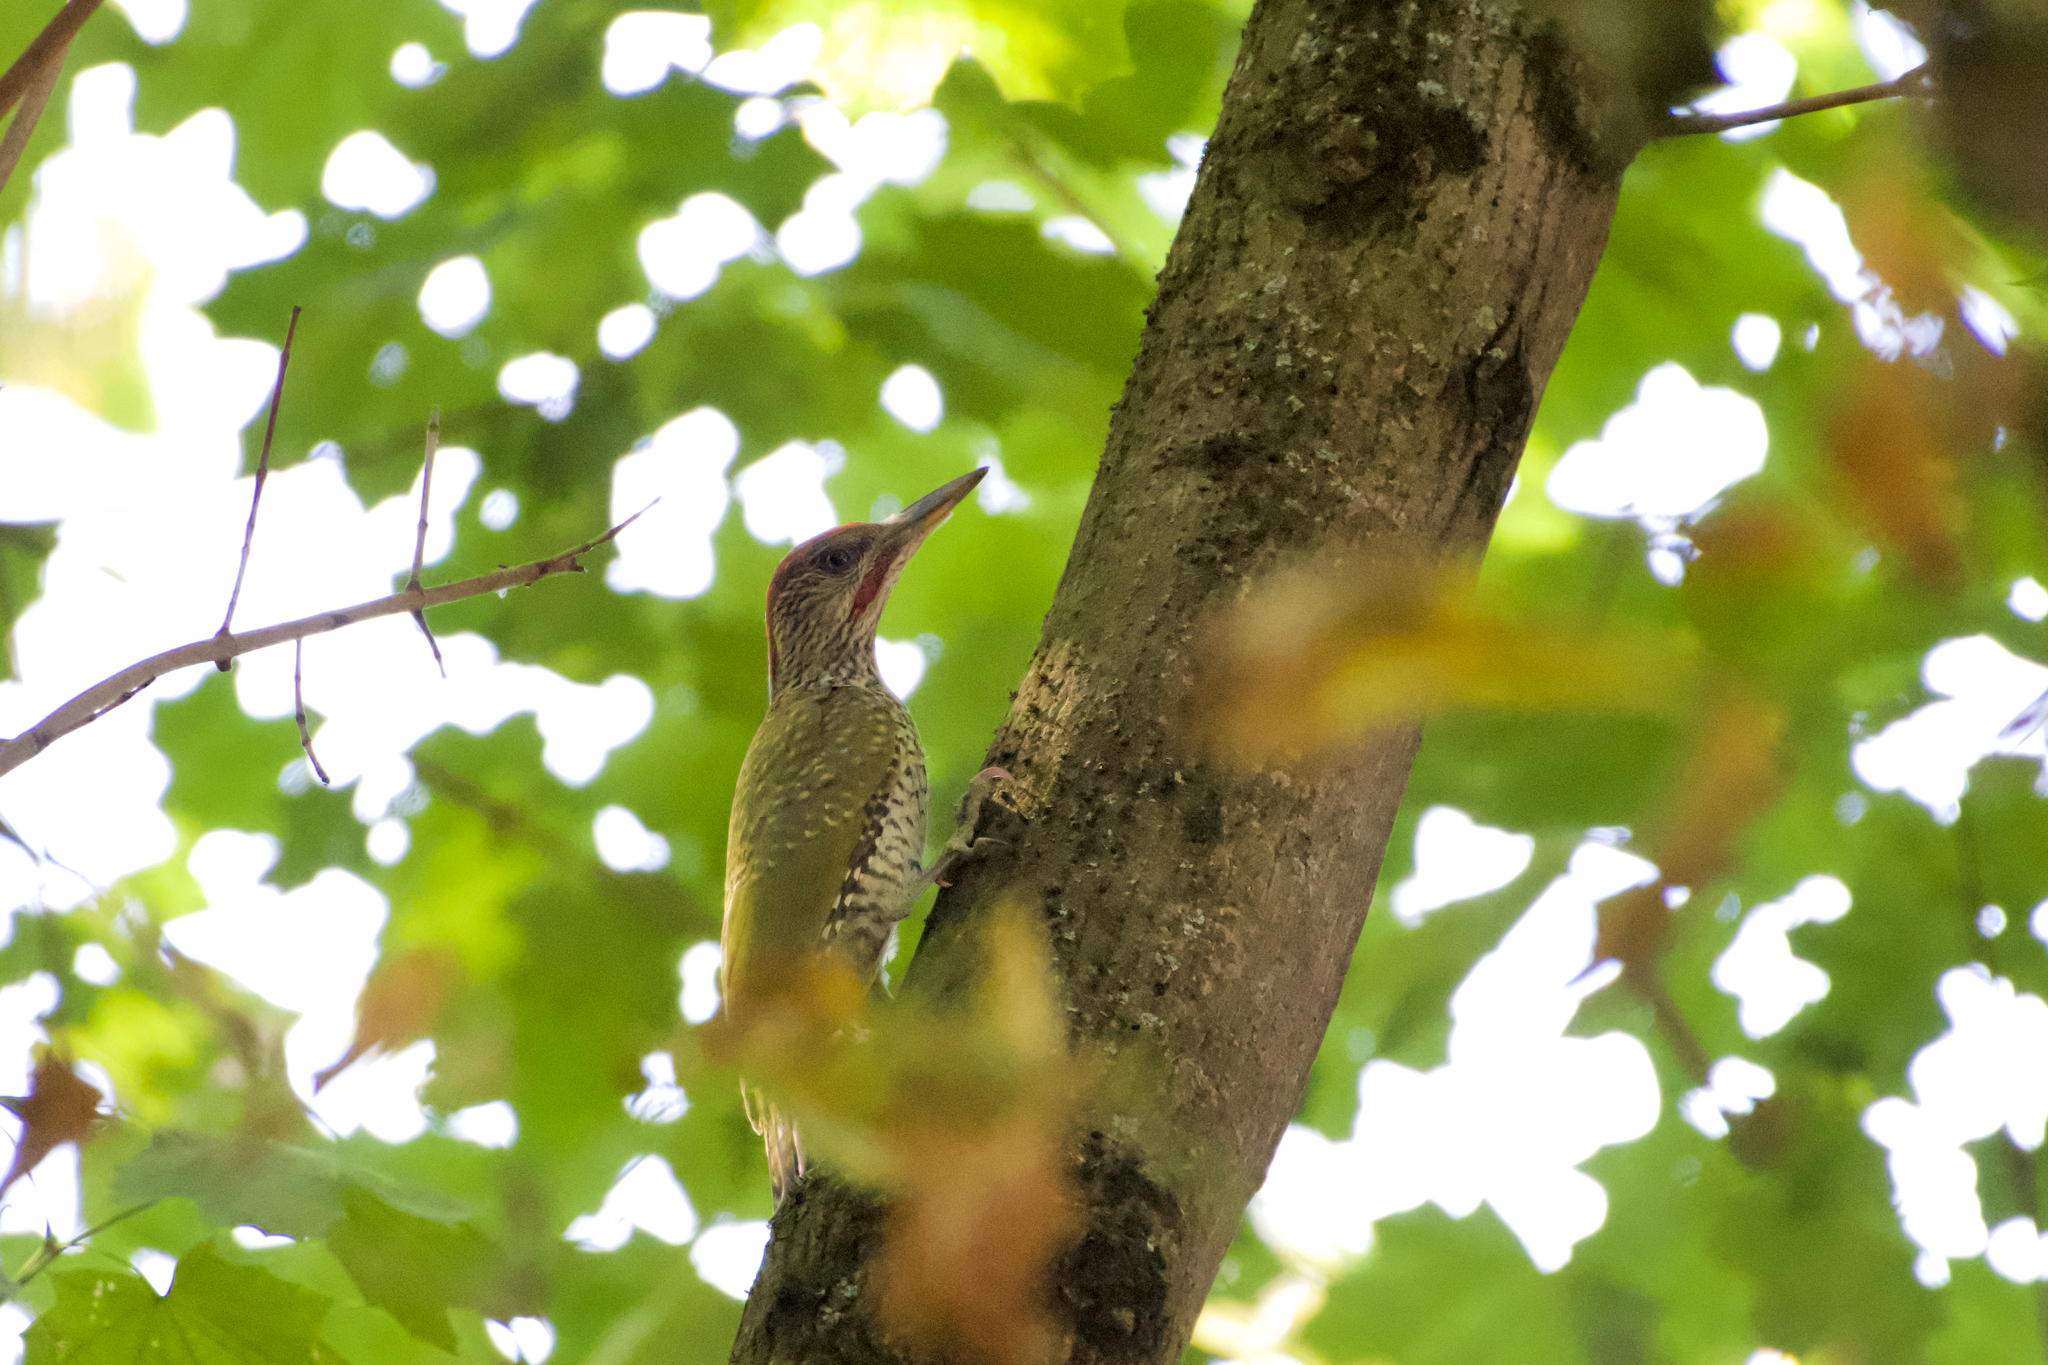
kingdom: Animalia
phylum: Chordata
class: Aves
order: Piciformes
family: Picidae
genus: Picus
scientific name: Picus viridis
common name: European green woodpecker
